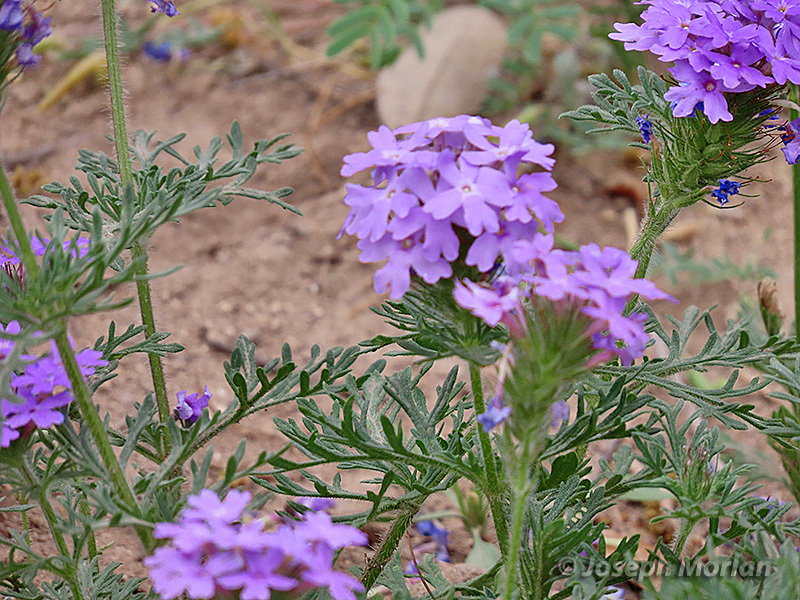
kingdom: Plantae
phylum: Tracheophyta
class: Magnoliopsida
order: Lamiales
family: Verbenaceae
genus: Verbena
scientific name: Verbena bipinnatifida
